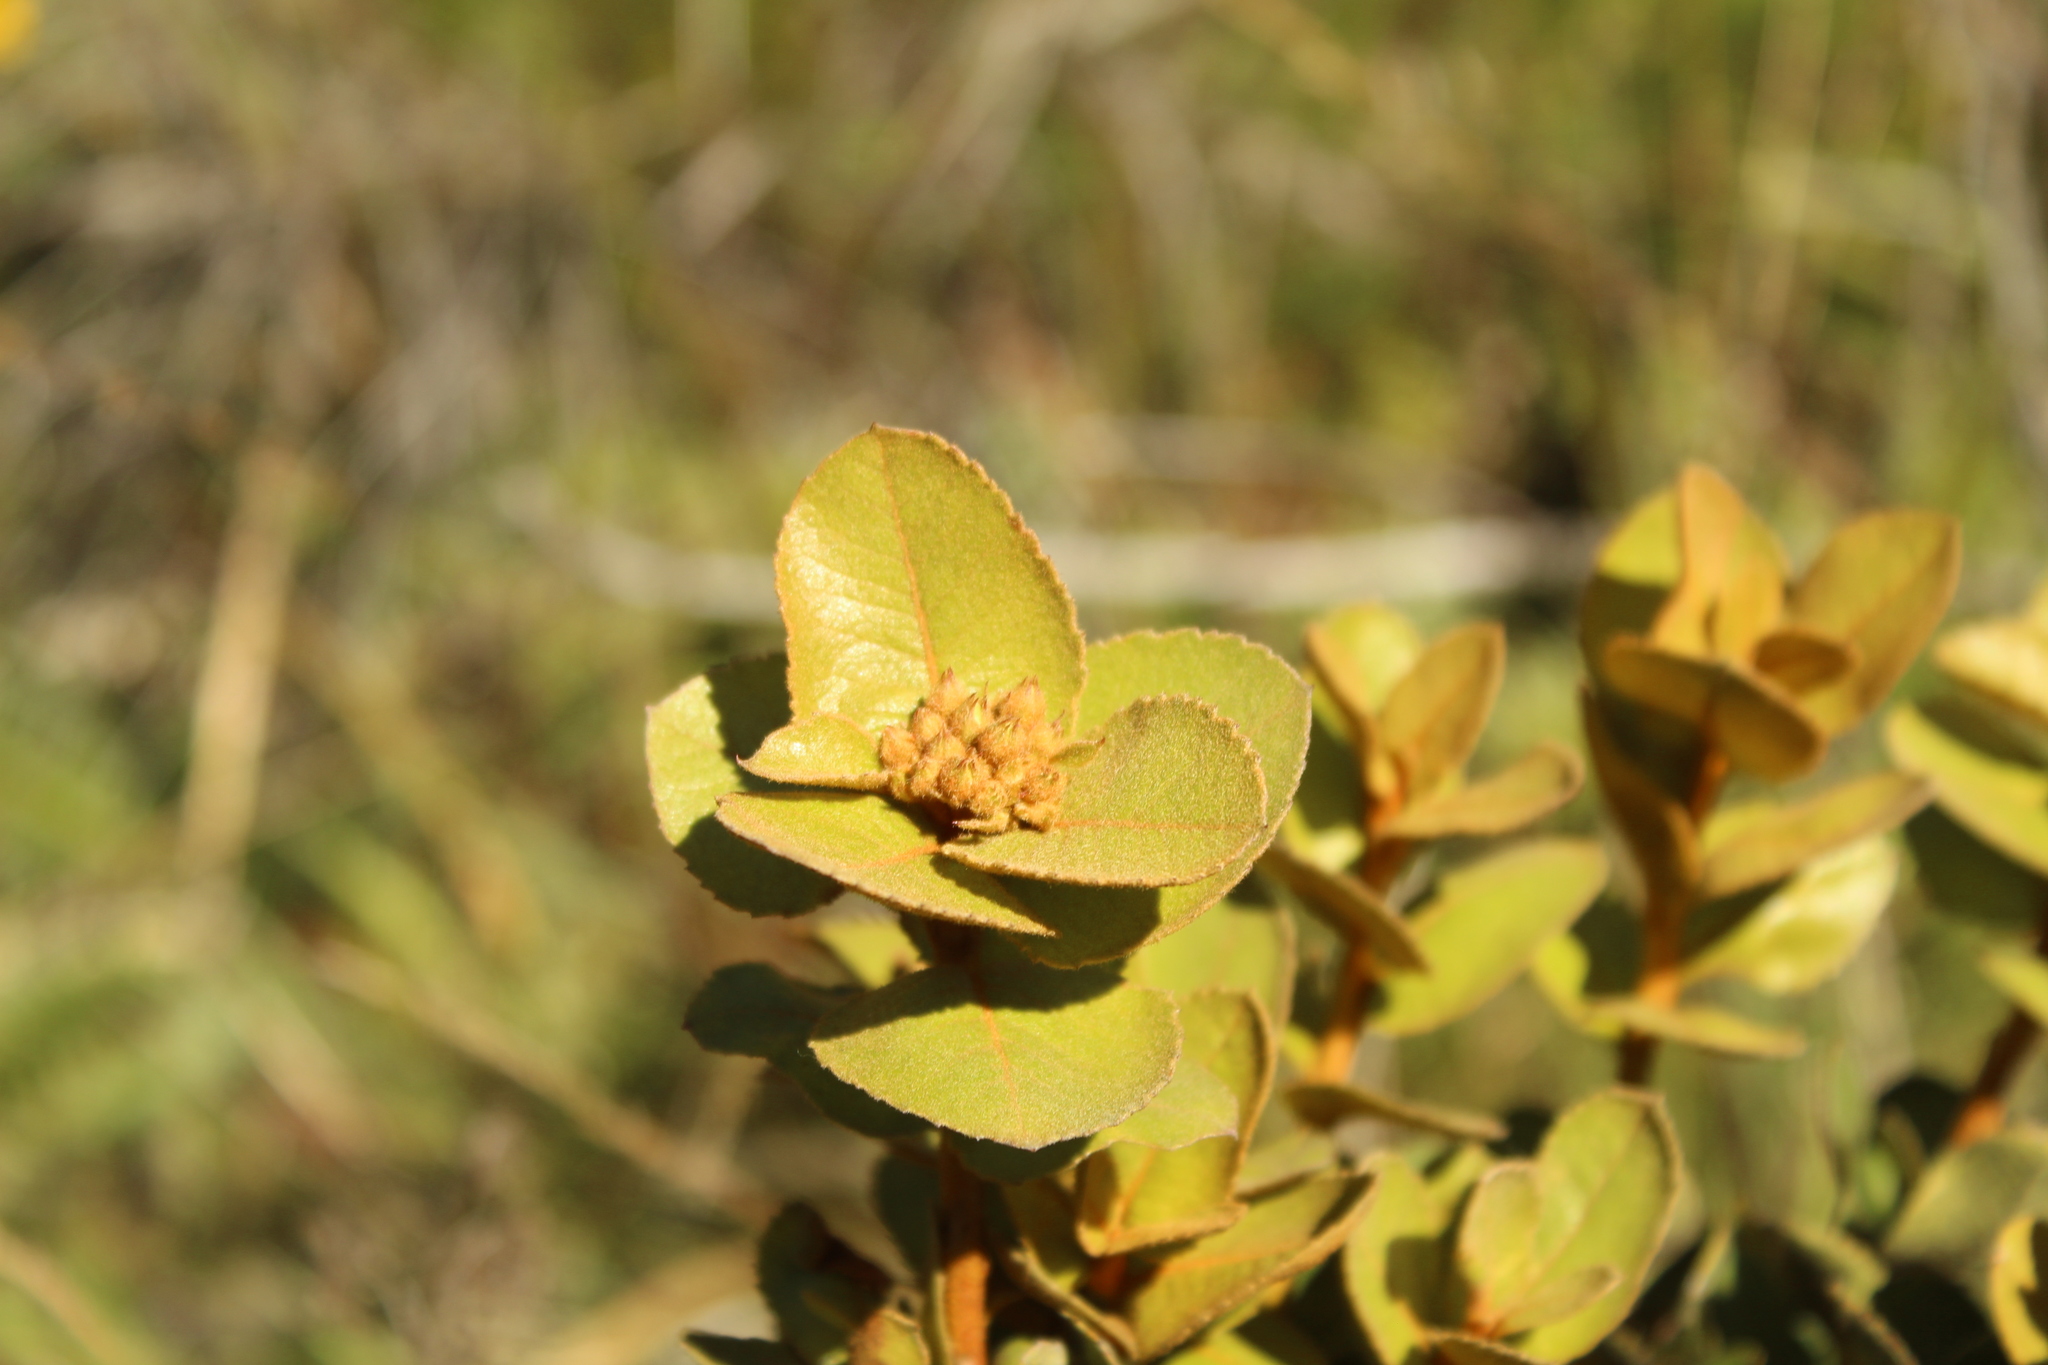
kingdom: Plantae
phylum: Tracheophyta
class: Magnoliopsida
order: Rosales
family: Rosaceae
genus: Hesperomeles
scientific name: Hesperomeles goudotiana
